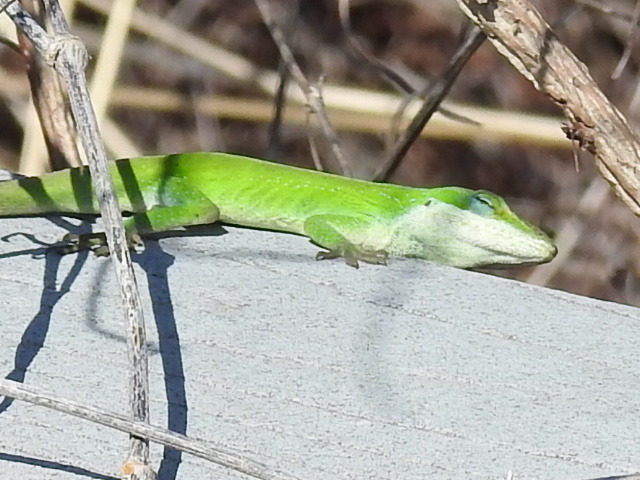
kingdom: Animalia
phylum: Chordata
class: Squamata
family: Dactyloidae
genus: Anolis
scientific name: Anolis carolinensis
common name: Green anole
